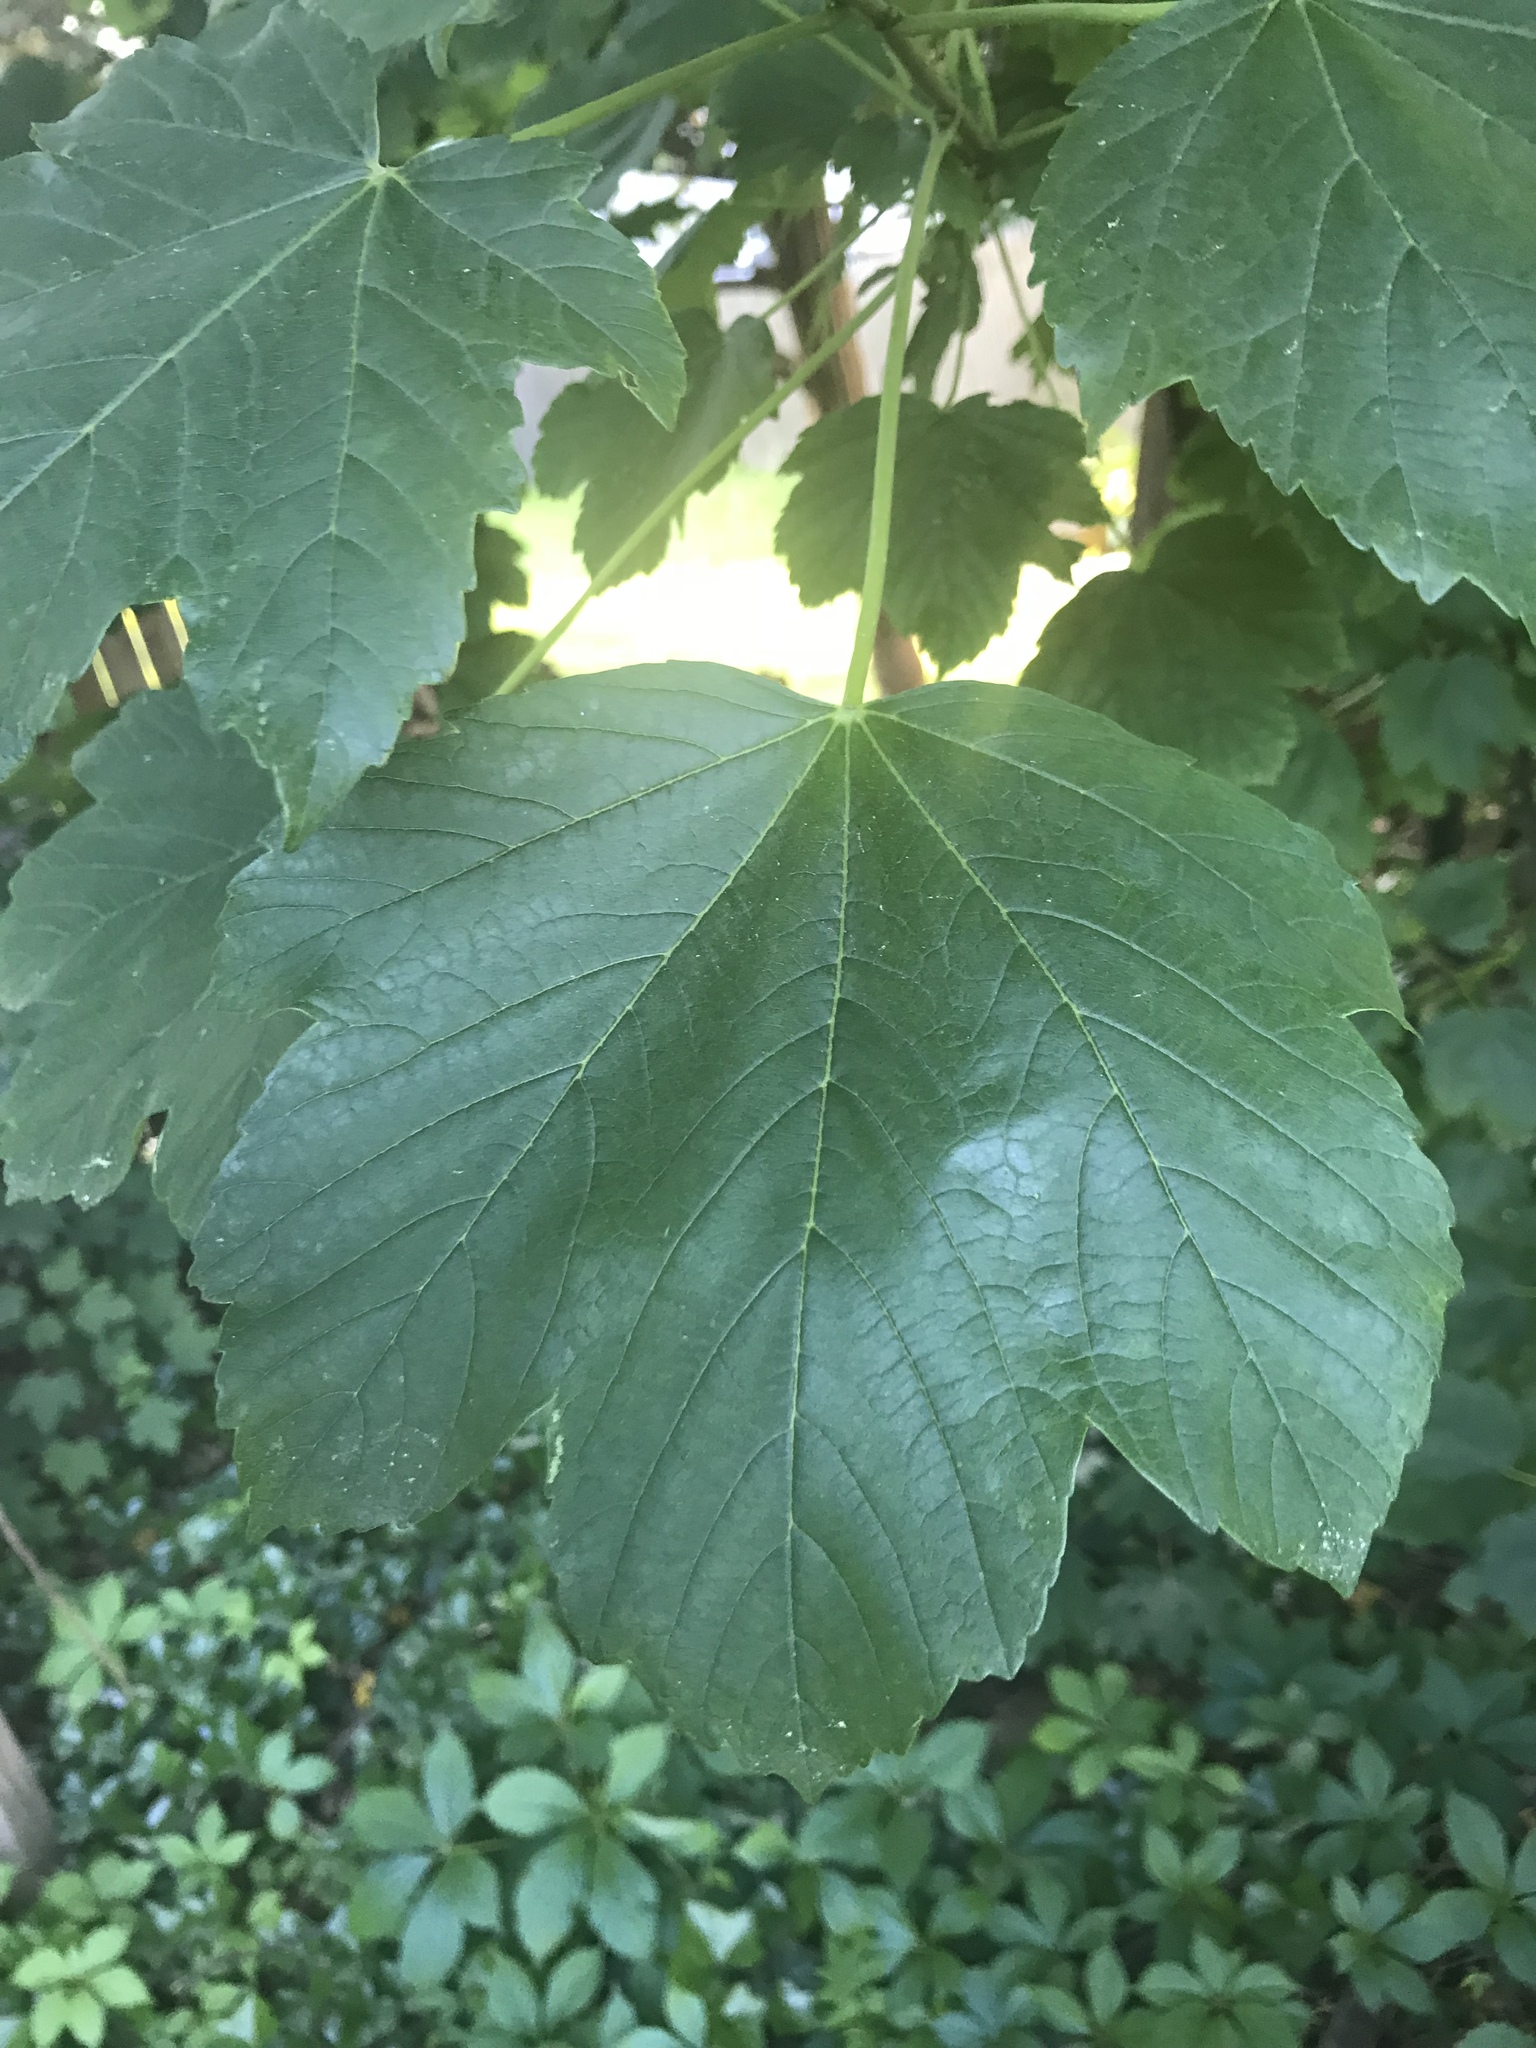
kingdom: Plantae
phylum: Tracheophyta
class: Magnoliopsida
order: Sapindales
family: Sapindaceae
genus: Acer
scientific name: Acer pseudoplatanus
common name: Sycamore
